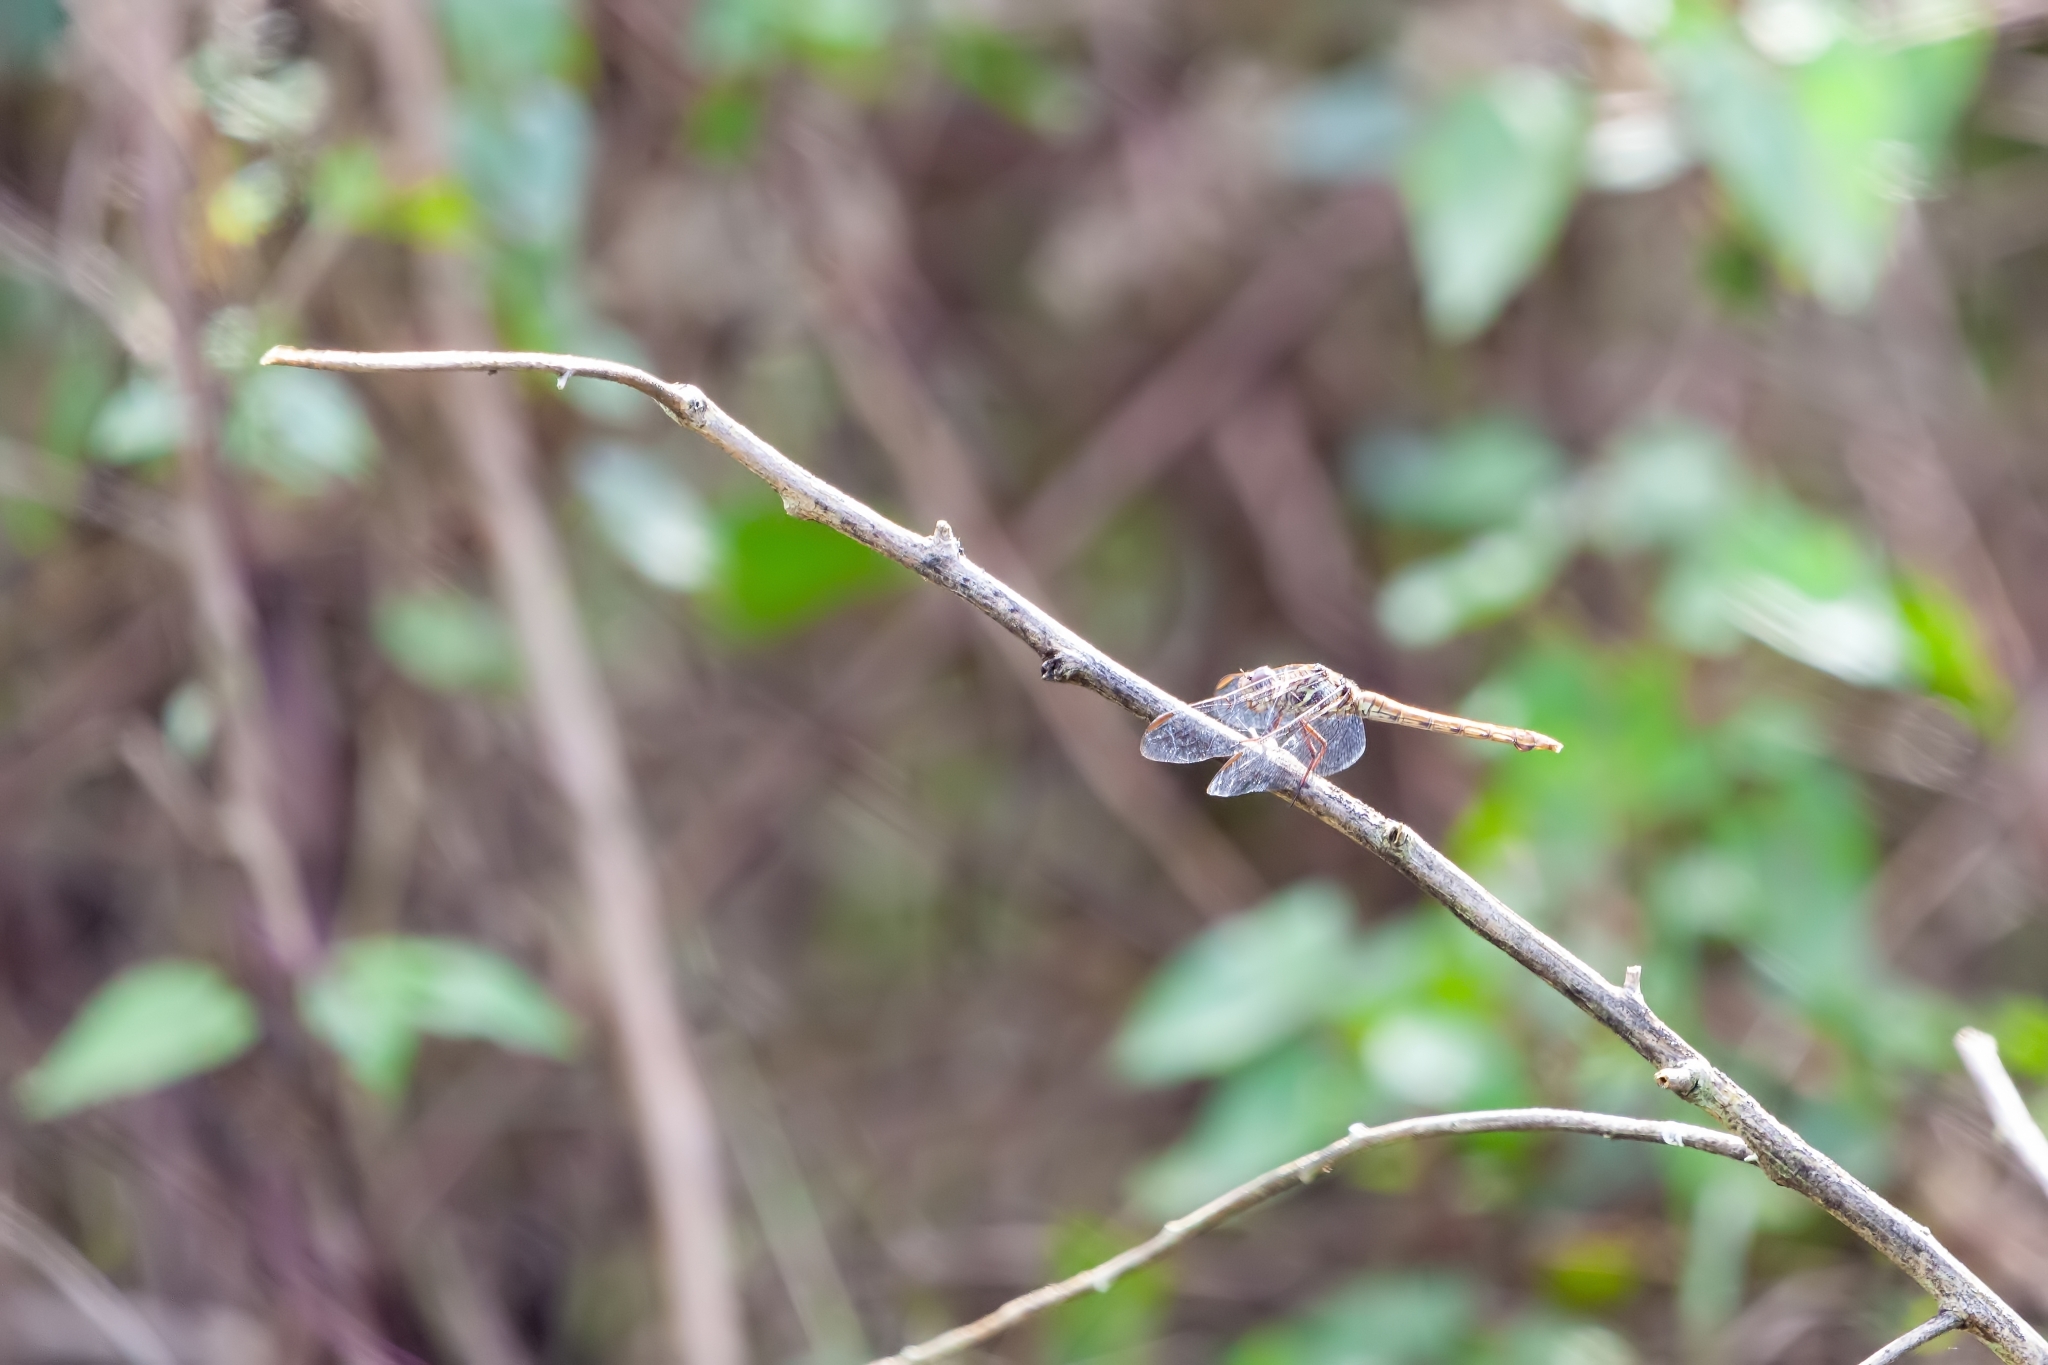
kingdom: Animalia
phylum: Arthropoda
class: Insecta
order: Odonata
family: Libellulidae
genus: Orthemis
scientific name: Orthemis ferruginea
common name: Roseate skimmer
